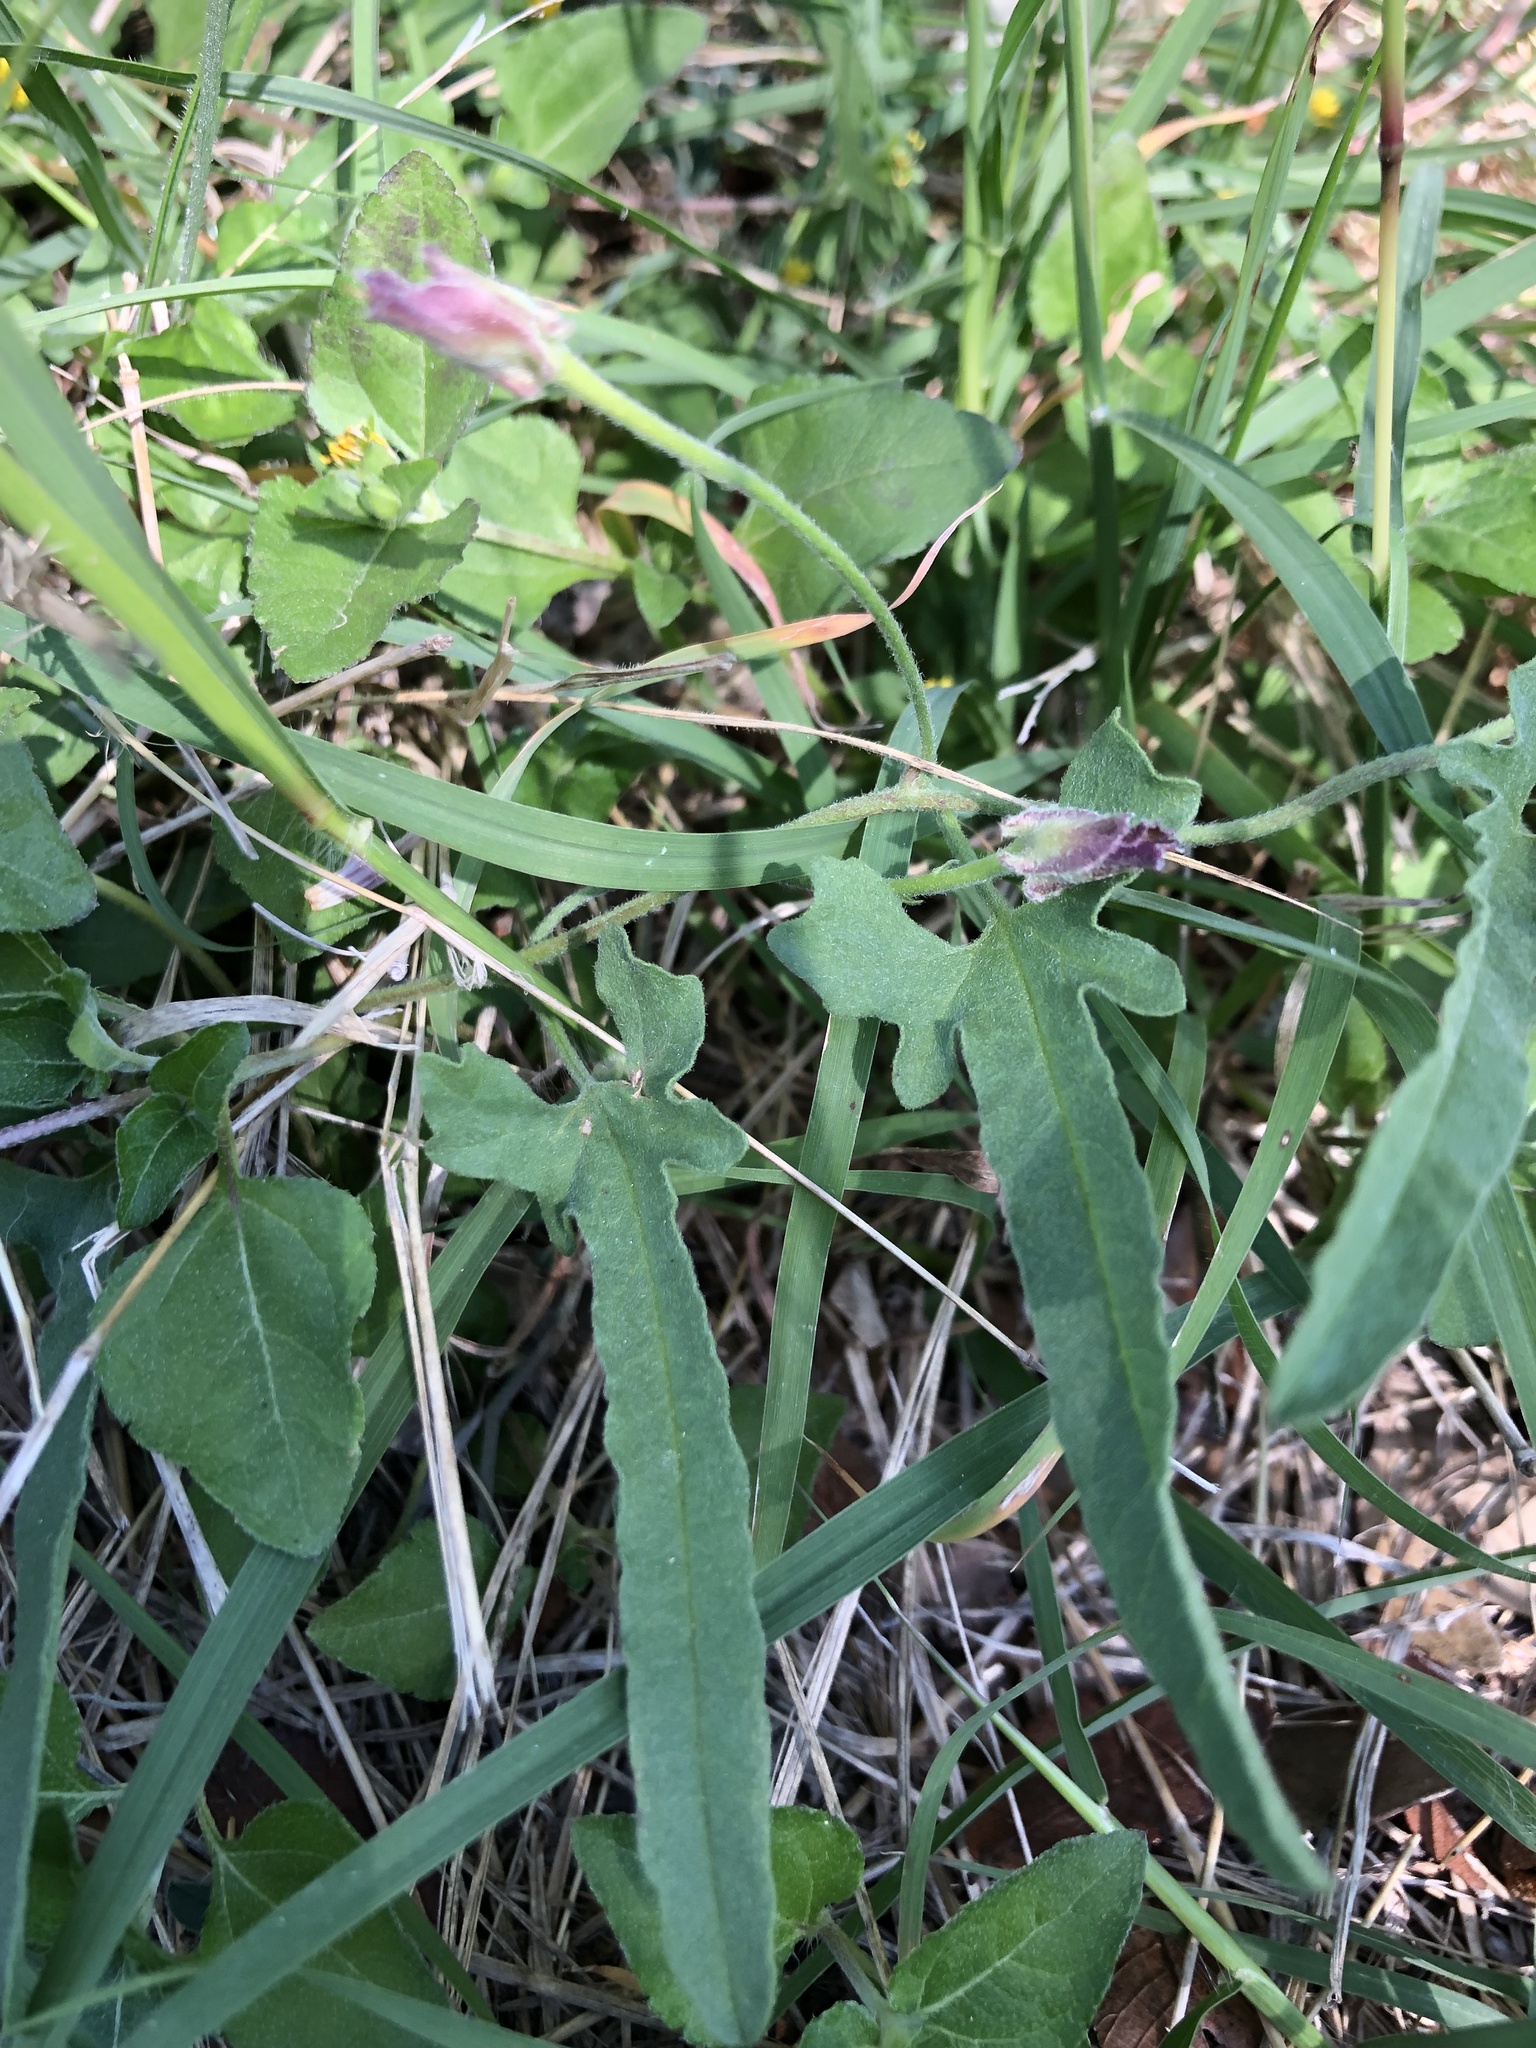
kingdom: Plantae
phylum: Tracheophyta
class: Magnoliopsida
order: Solanales
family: Convolvulaceae
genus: Convolvulus
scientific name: Convolvulus equitans
